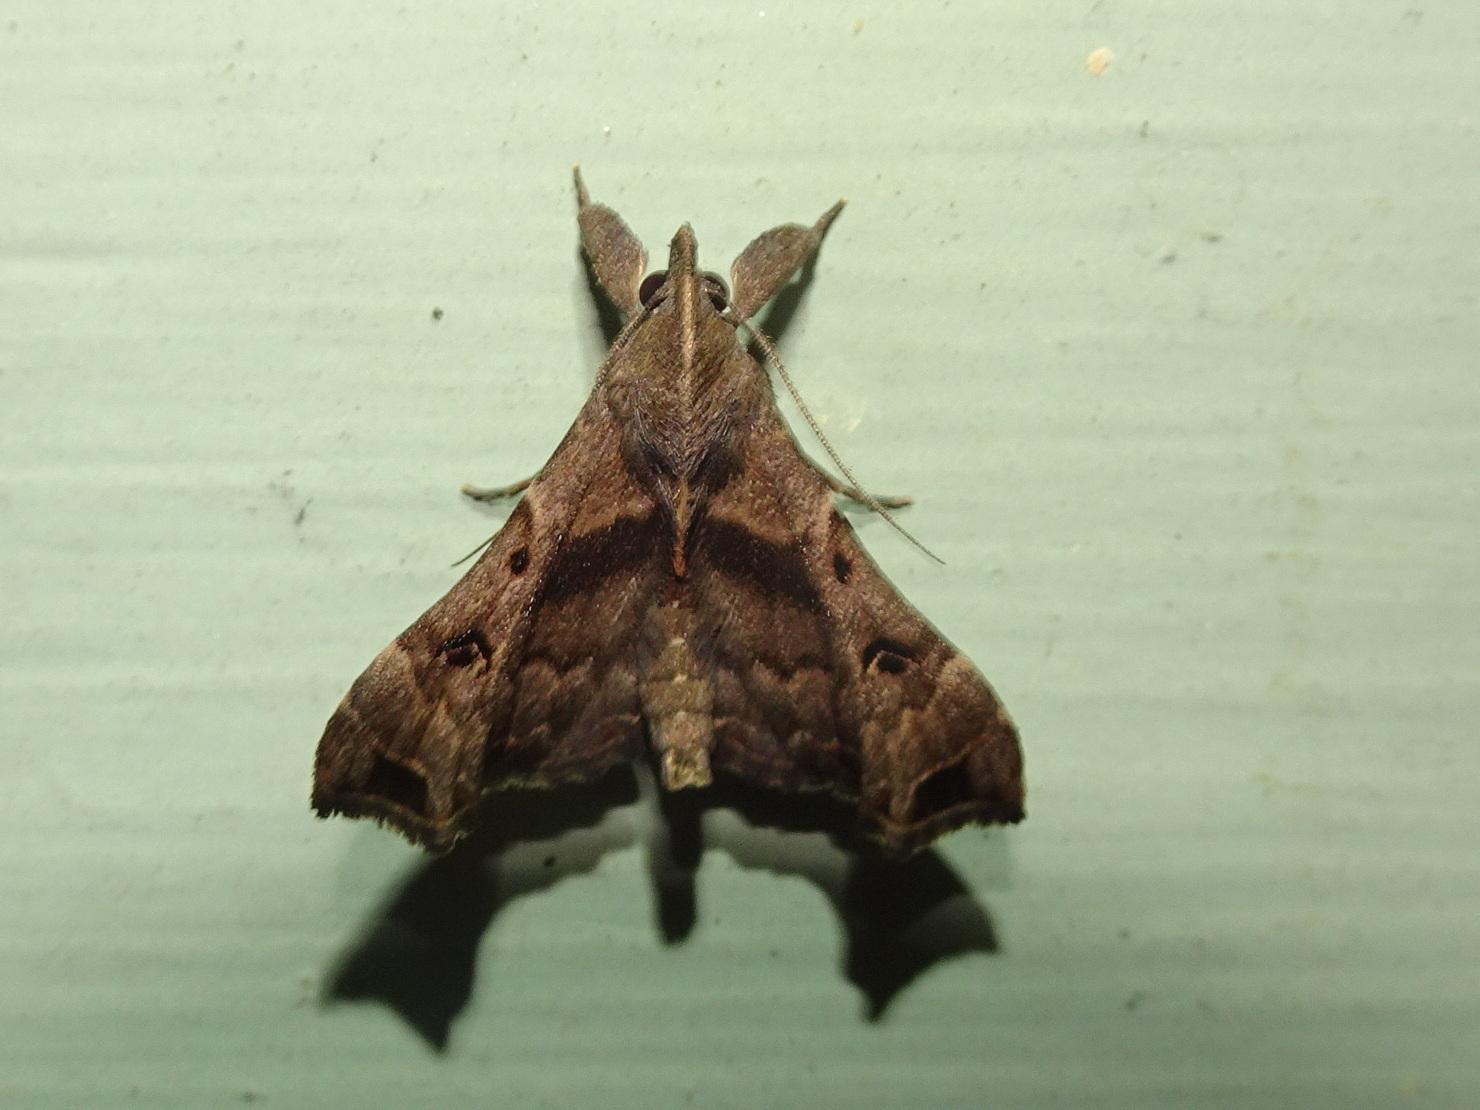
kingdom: Animalia
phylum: Arthropoda
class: Insecta
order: Lepidoptera
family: Erebidae
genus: Palthis
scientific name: Palthis asopialis
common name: Faint-spotted palthis moth
